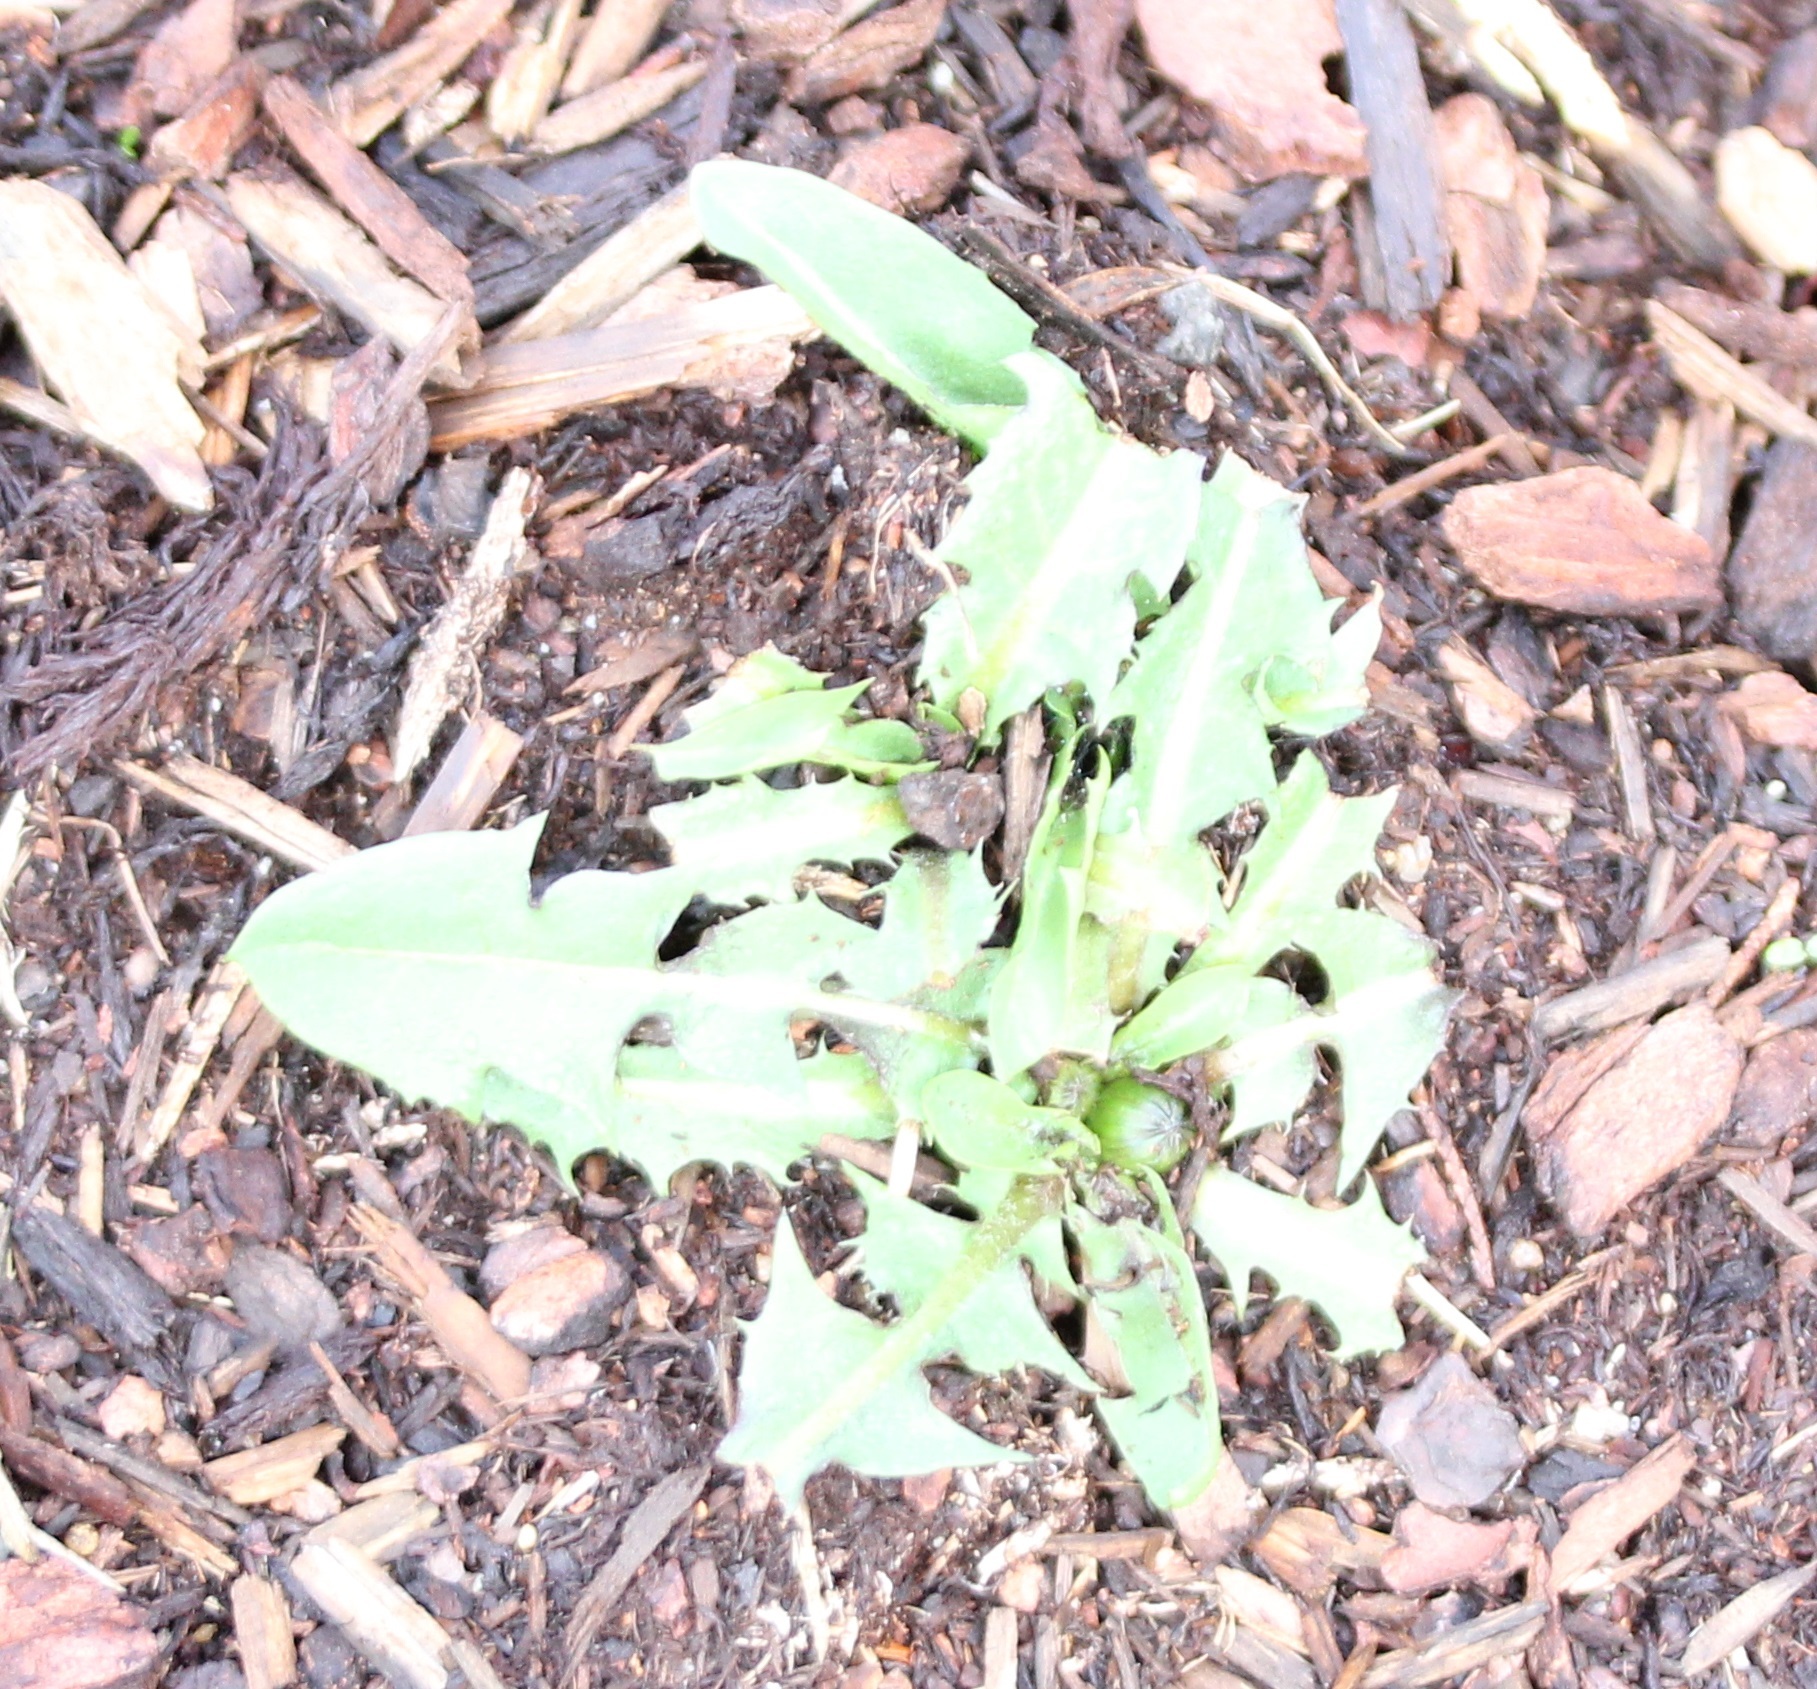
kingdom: Plantae
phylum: Tracheophyta
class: Magnoliopsida
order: Asterales
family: Asteraceae
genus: Taraxacum
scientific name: Taraxacum officinale
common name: Common dandelion
